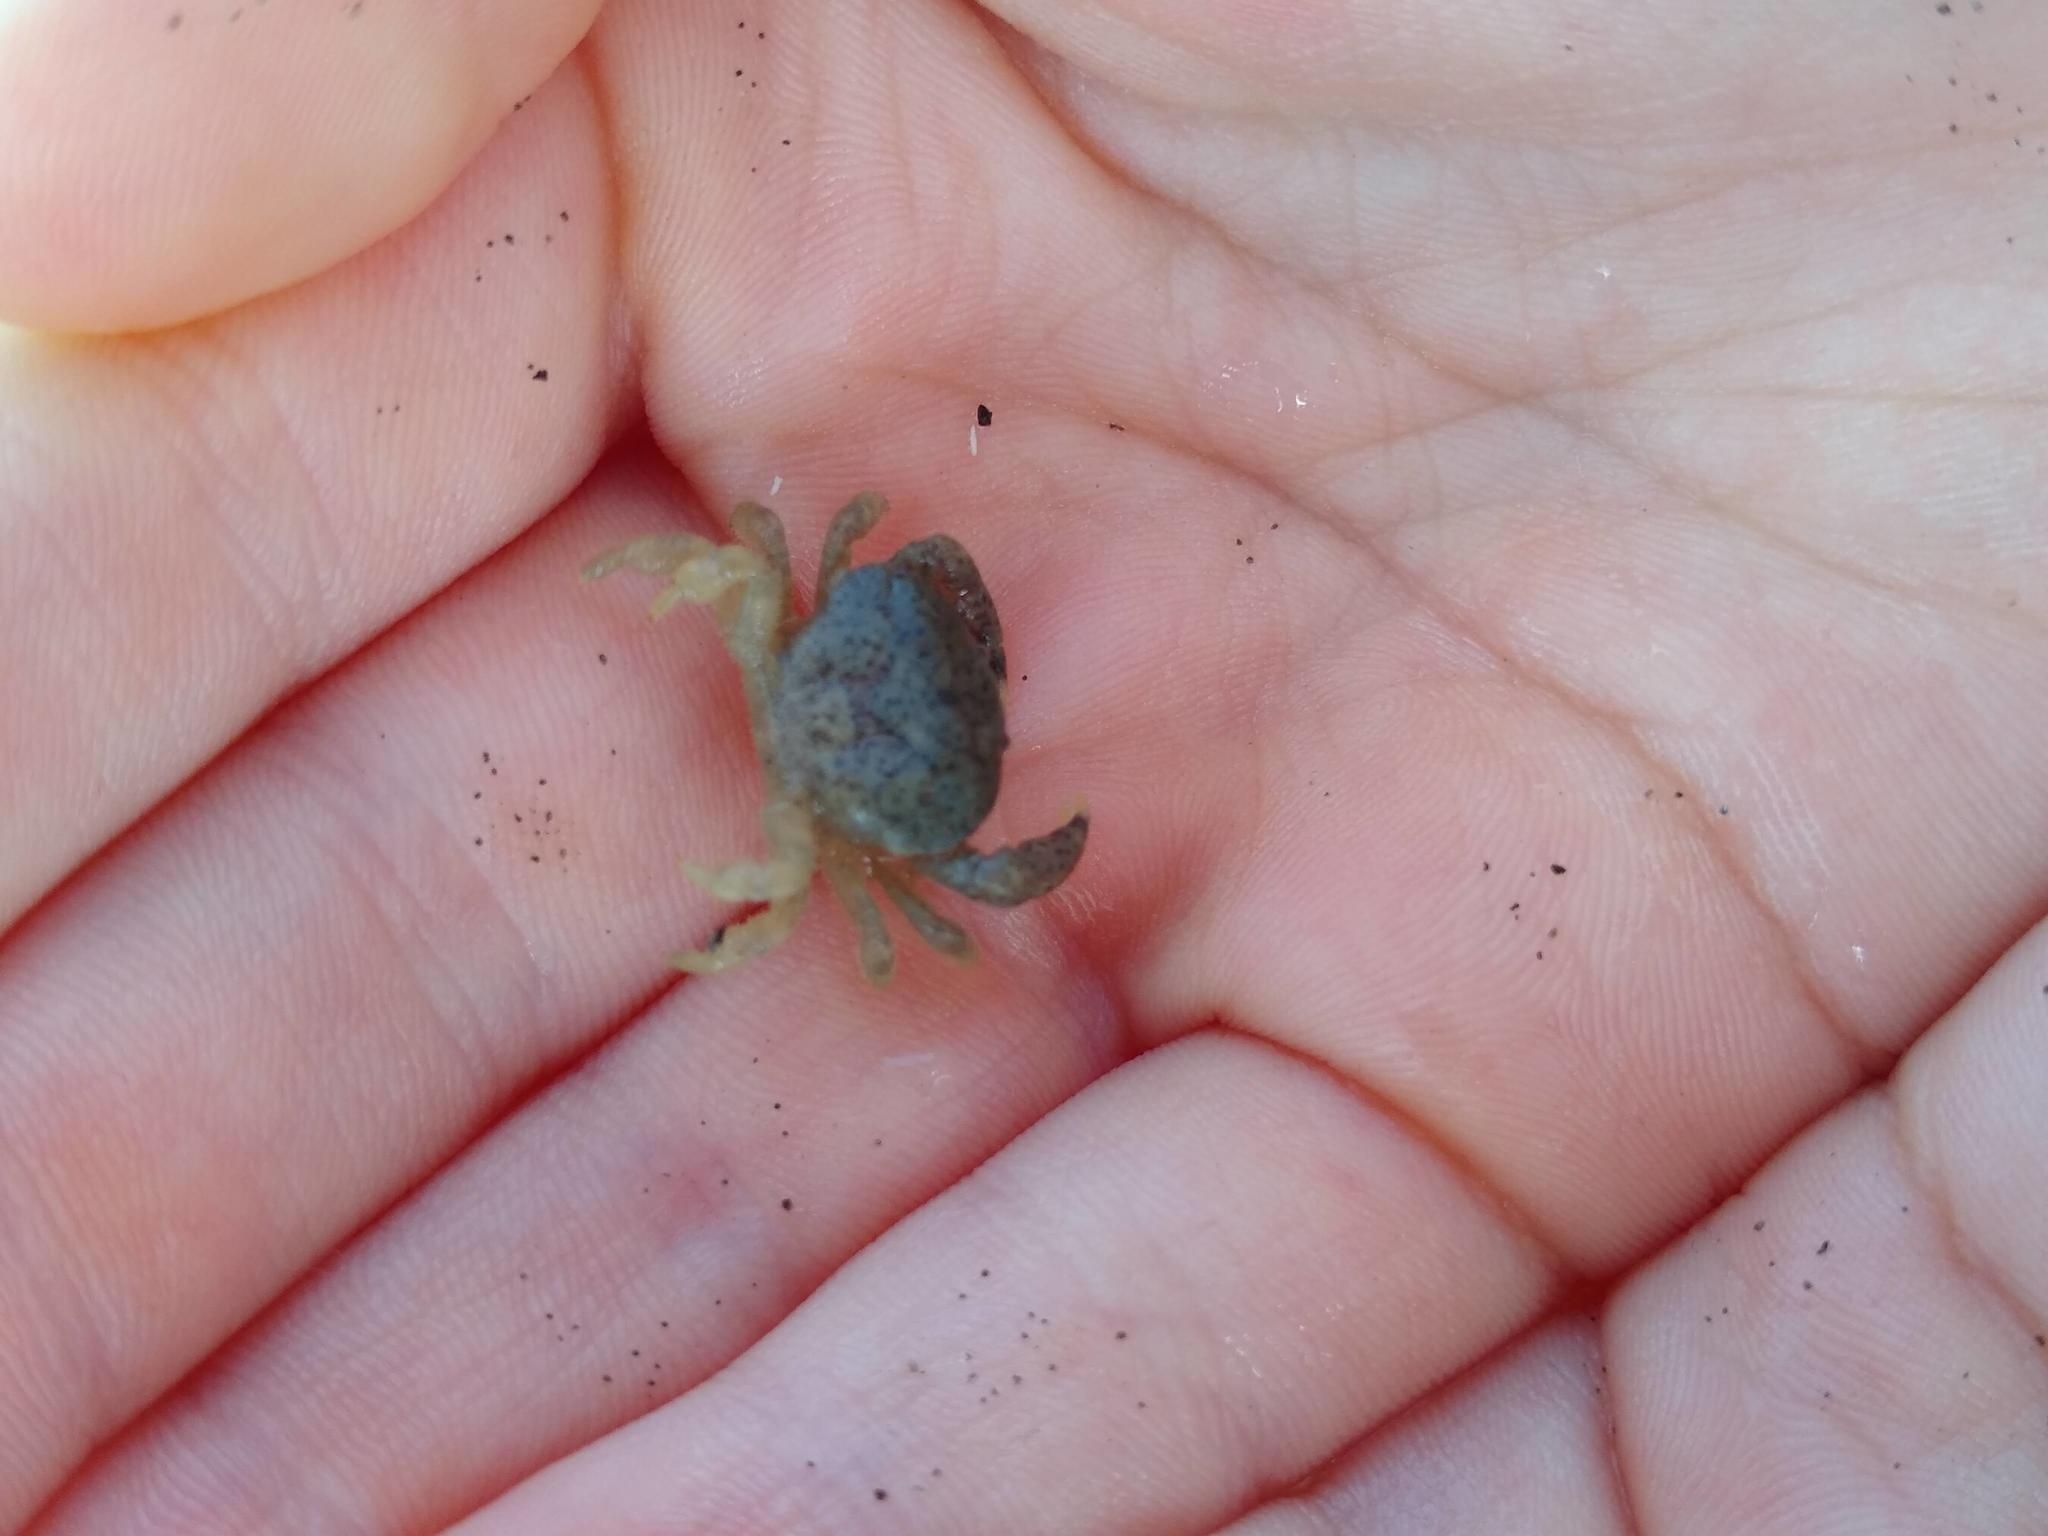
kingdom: Animalia
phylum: Arthropoda
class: Malacostraca
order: Decapoda
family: Heteroziidae
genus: Heterozius
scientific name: Heterozius rotundifrons
